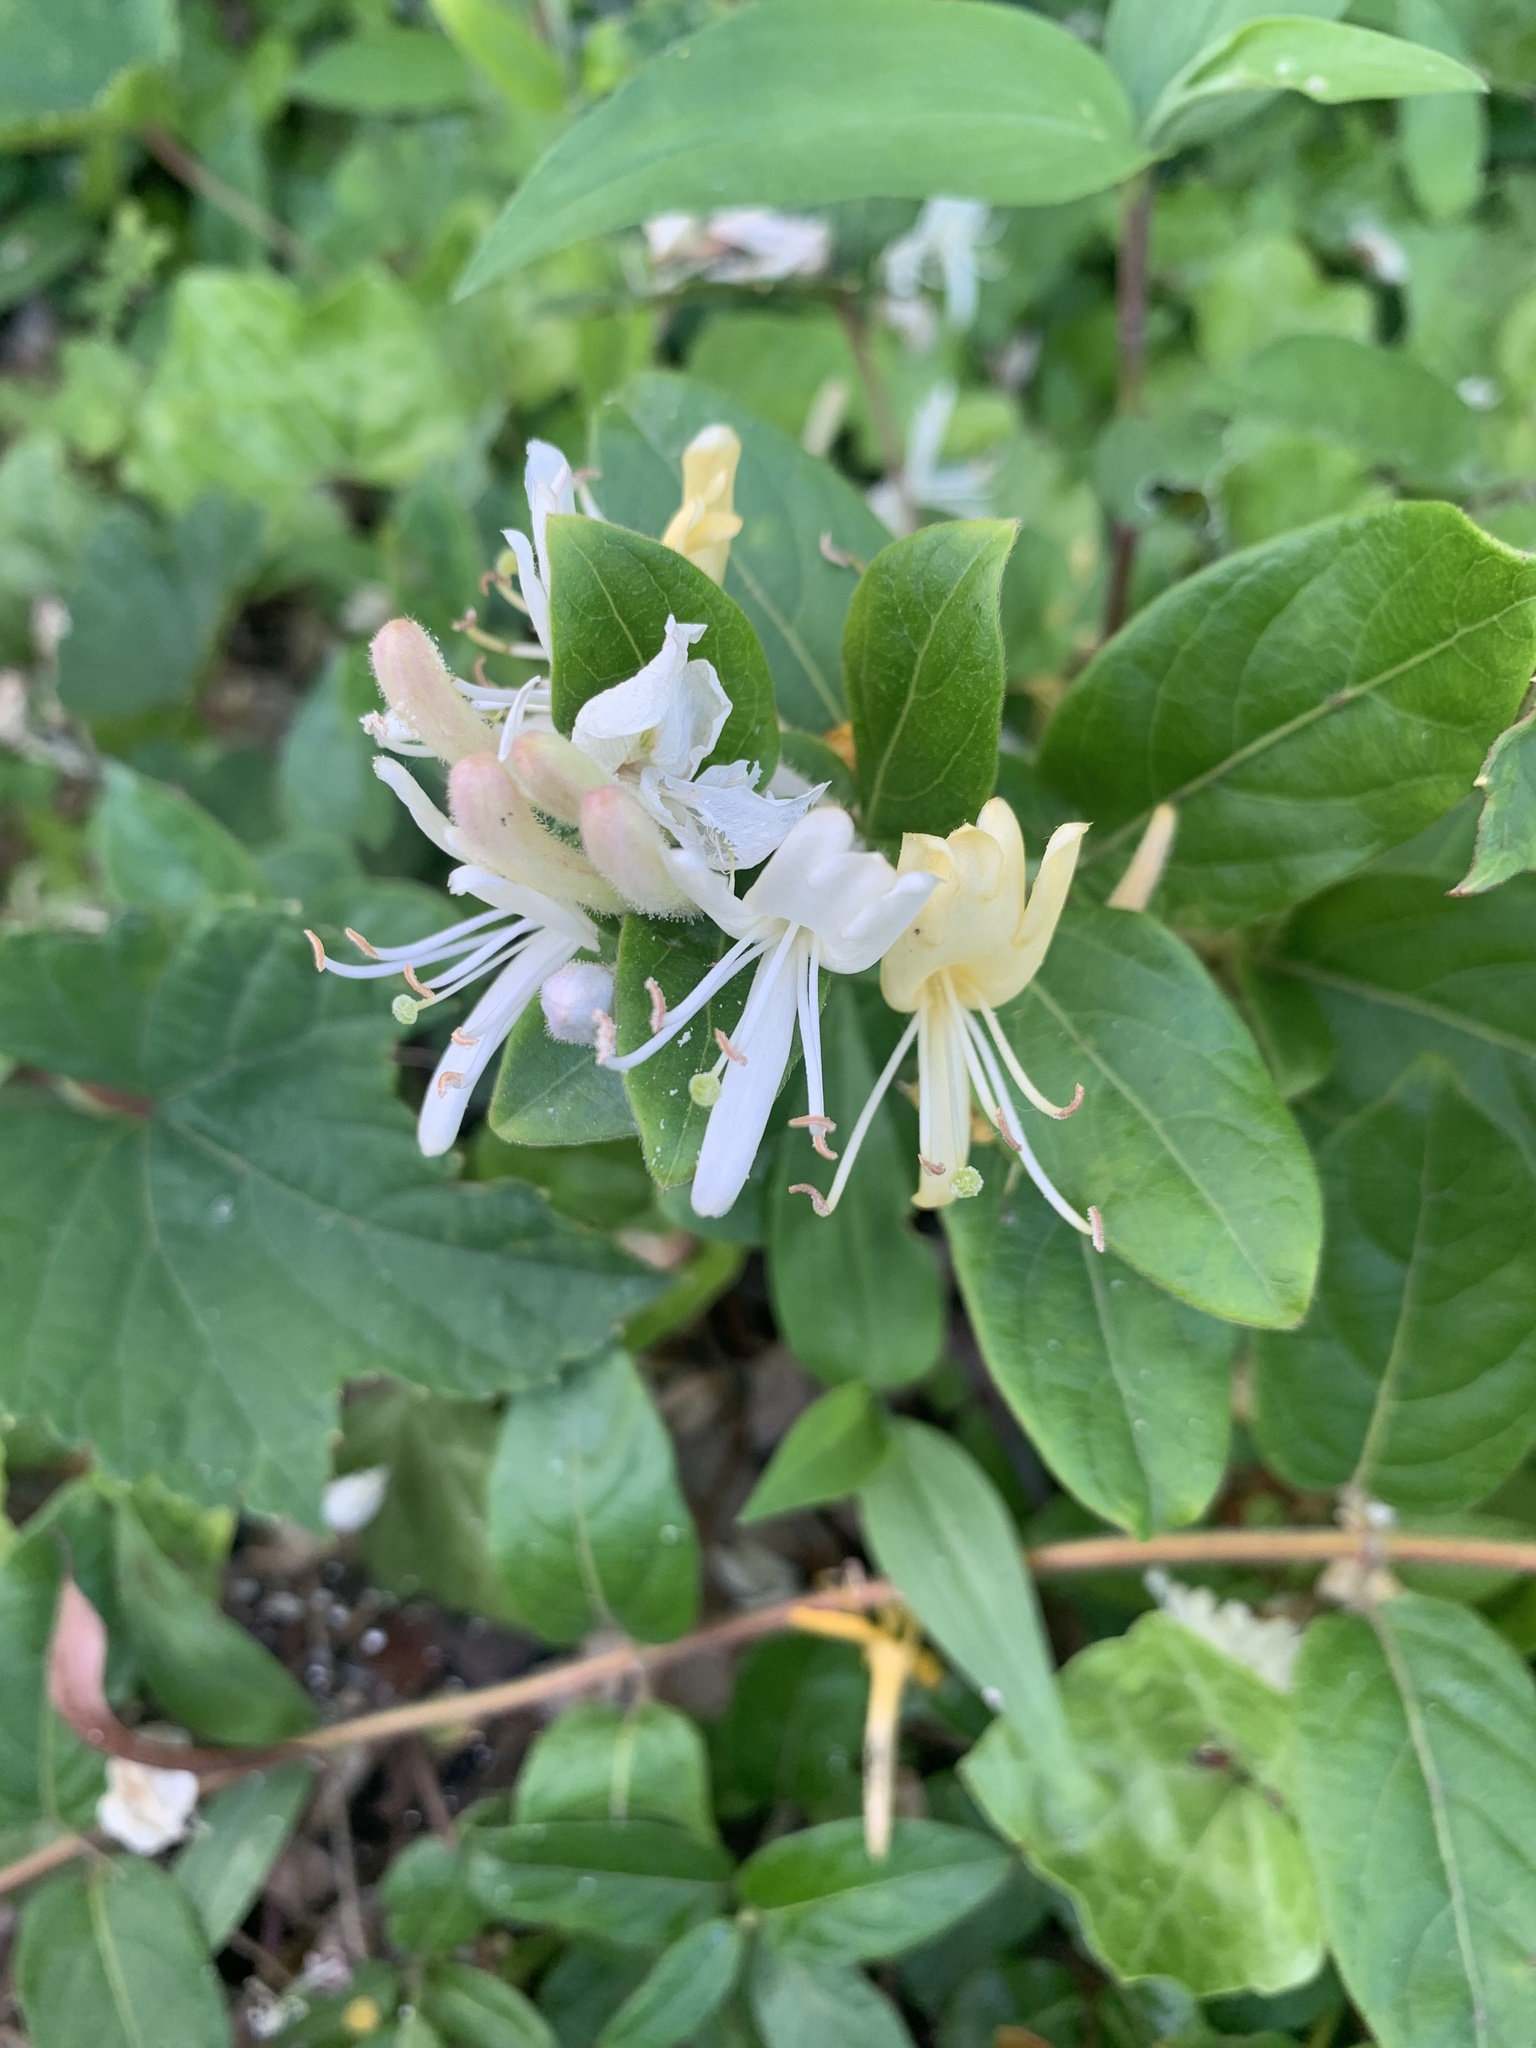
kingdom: Plantae
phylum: Tracheophyta
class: Magnoliopsida
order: Dipsacales
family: Caprifoliaceae
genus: Lonicera
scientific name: Lonicera japonica
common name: Japanese honeysuckle
